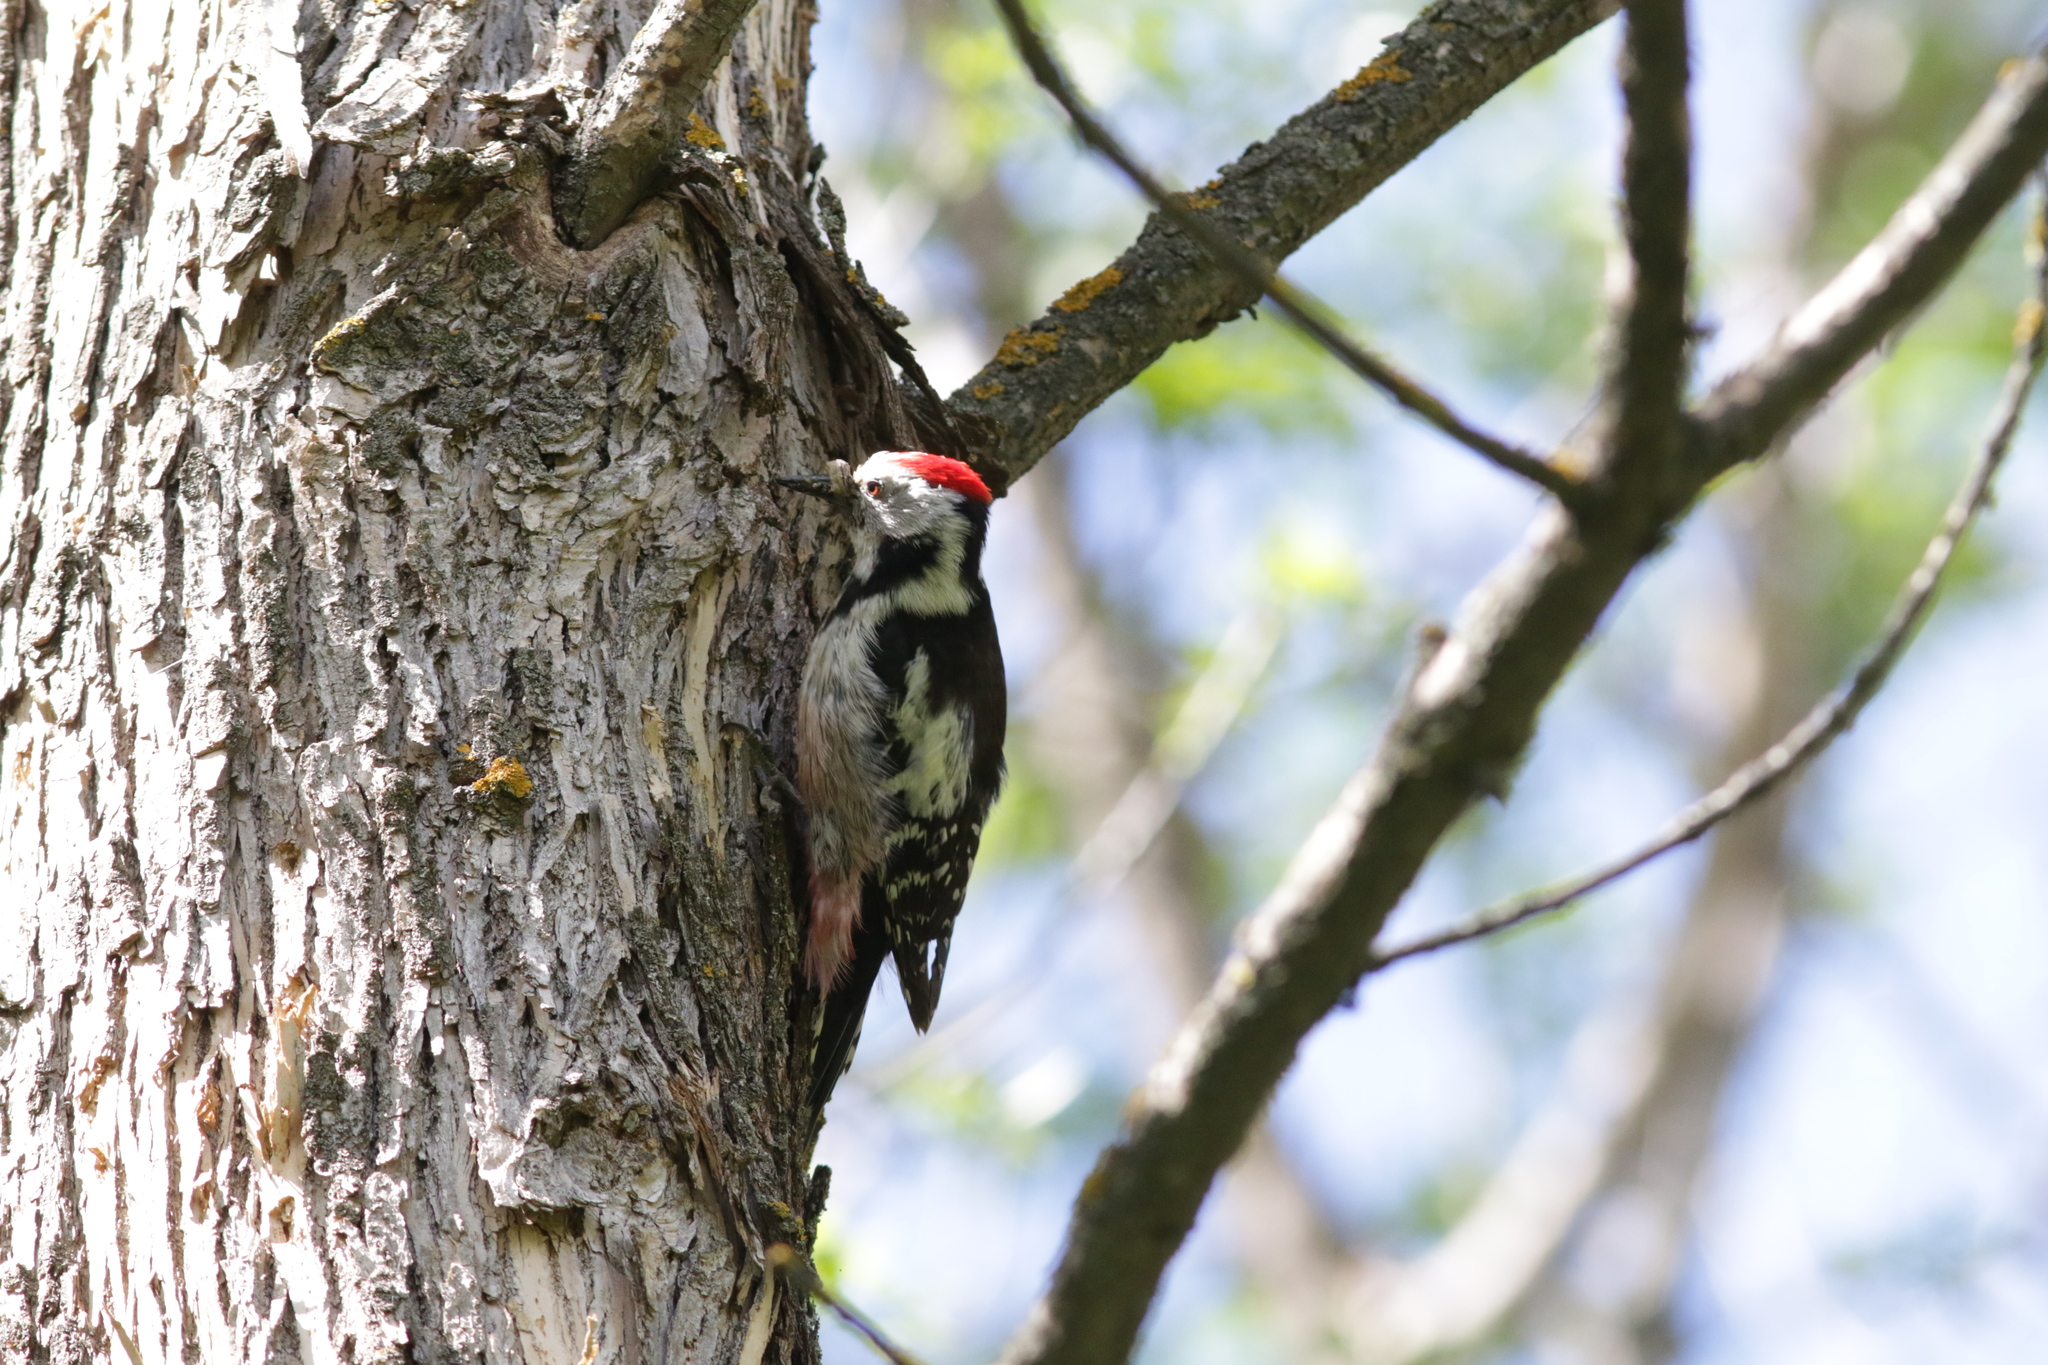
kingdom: Animalia
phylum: Chordata
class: Aves
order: Piciformes
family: Picidae
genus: Dendrocoptes
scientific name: Dendrocoptes medius
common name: Middle spotted woodpecker
